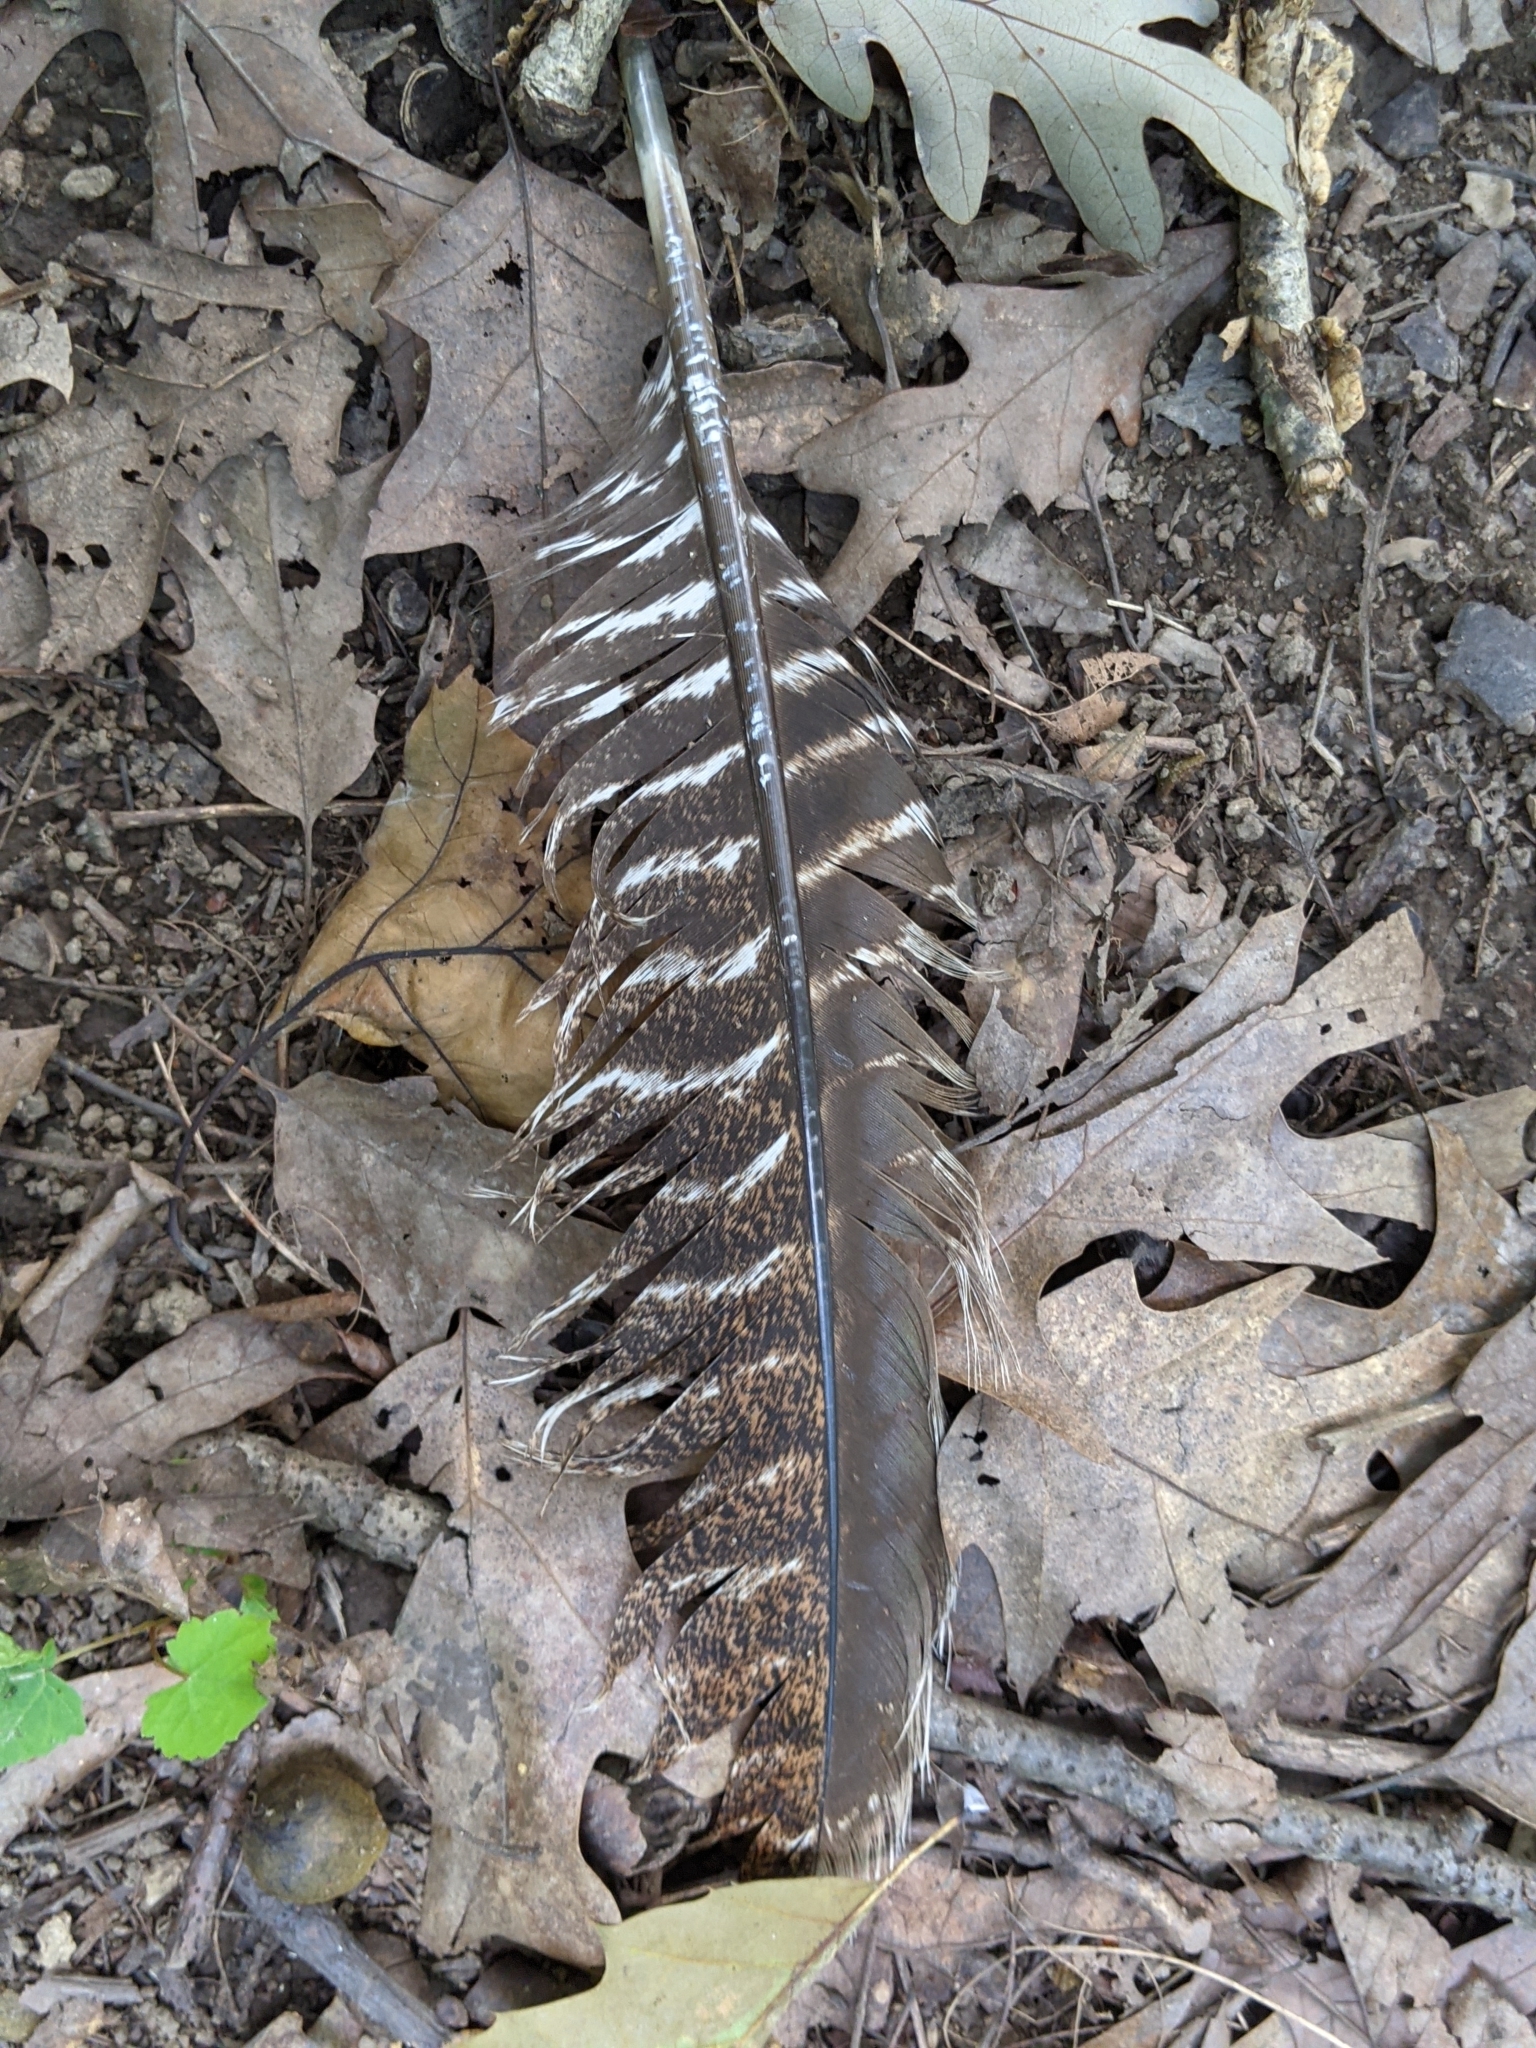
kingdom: Animalia
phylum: Chordata
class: Aves
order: Galliformes
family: Phasianidae
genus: Meleagris
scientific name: Meleagris gallopavo
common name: Wild turkey
